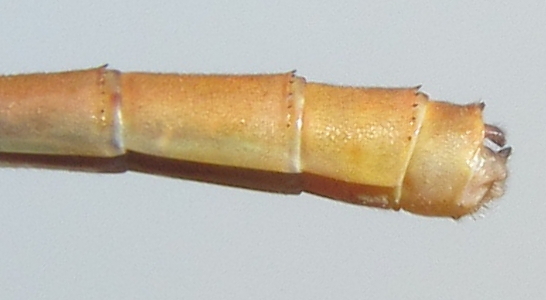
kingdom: Animalia
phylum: Arthropoda
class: Insecta
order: Odonata
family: Coenagrionidae
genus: Ceriagrion
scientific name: Ceriagrion glabrum
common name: Common pond damsel
